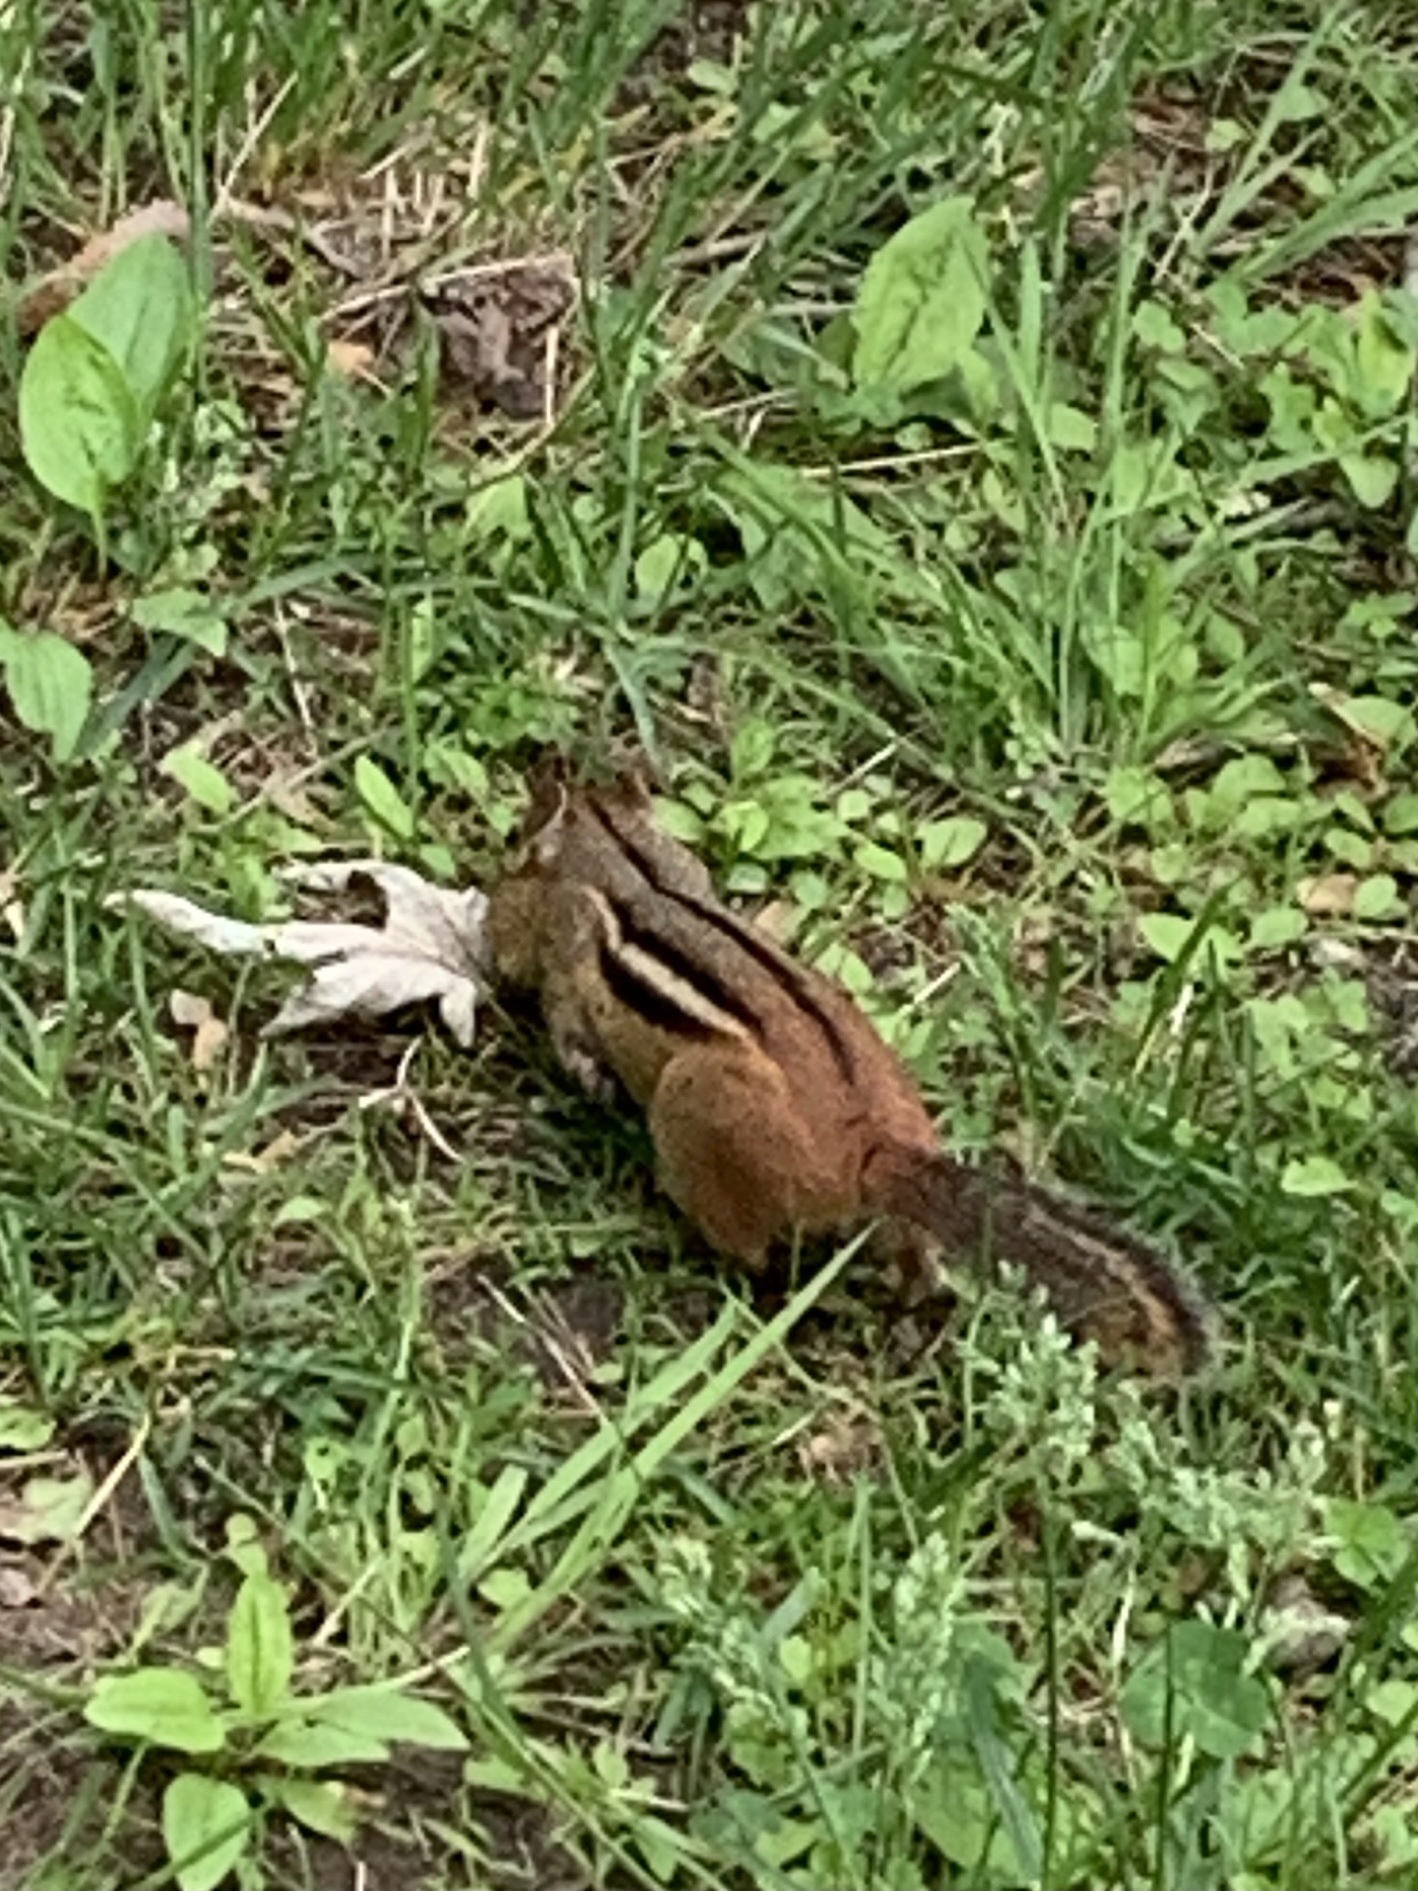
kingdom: Animalia
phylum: Chordata
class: Mammalia
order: Rodentia
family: Sciuridae
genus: Tamias
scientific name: Tamias striatus
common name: Eastern chipmunk
